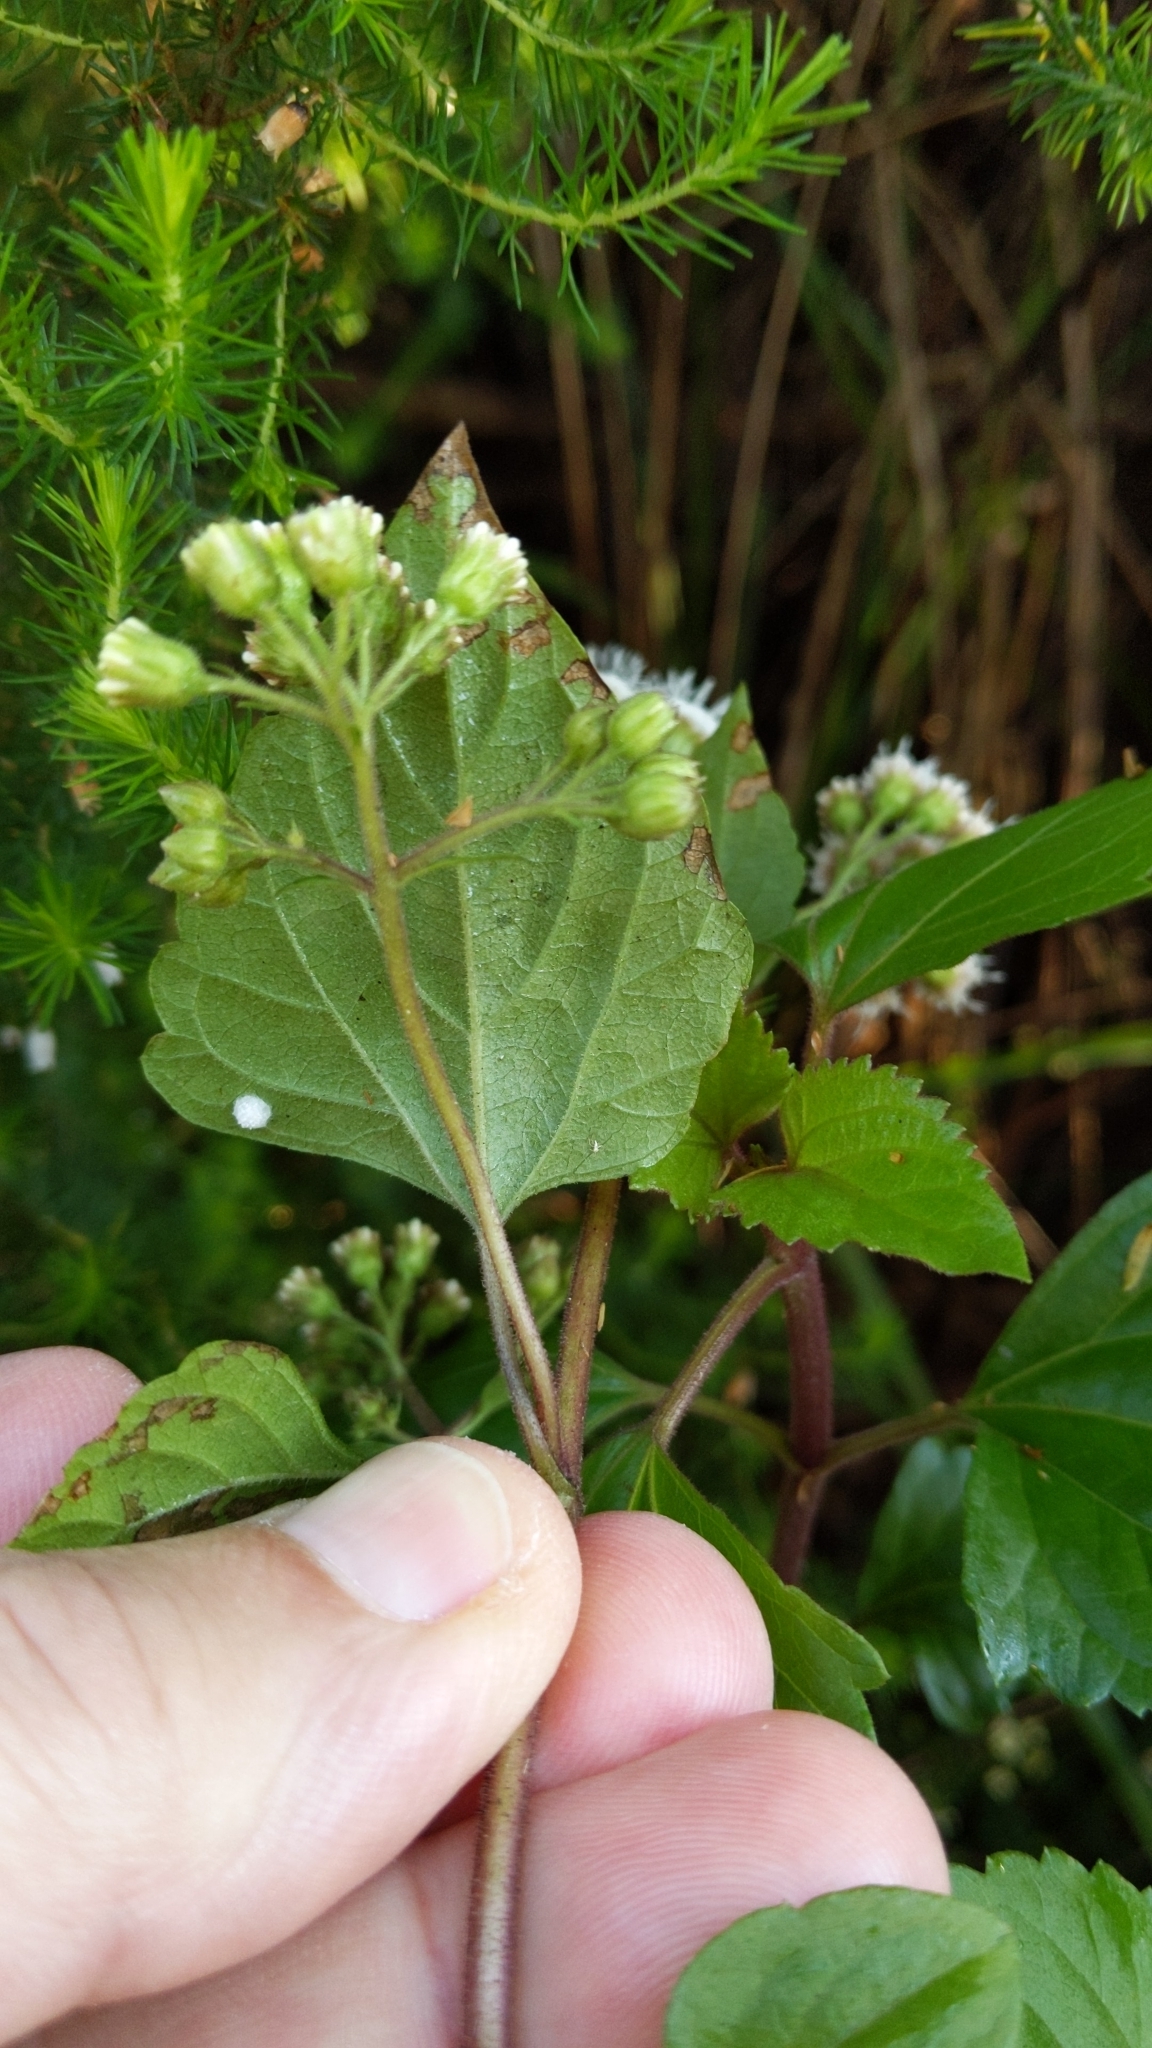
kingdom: Plantae
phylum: Tracheophyta
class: Magnoliopsida
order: Asterales
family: Asteraceae
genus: Ageratina
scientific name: Ageratina adenophora
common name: Sticky snakeroot
